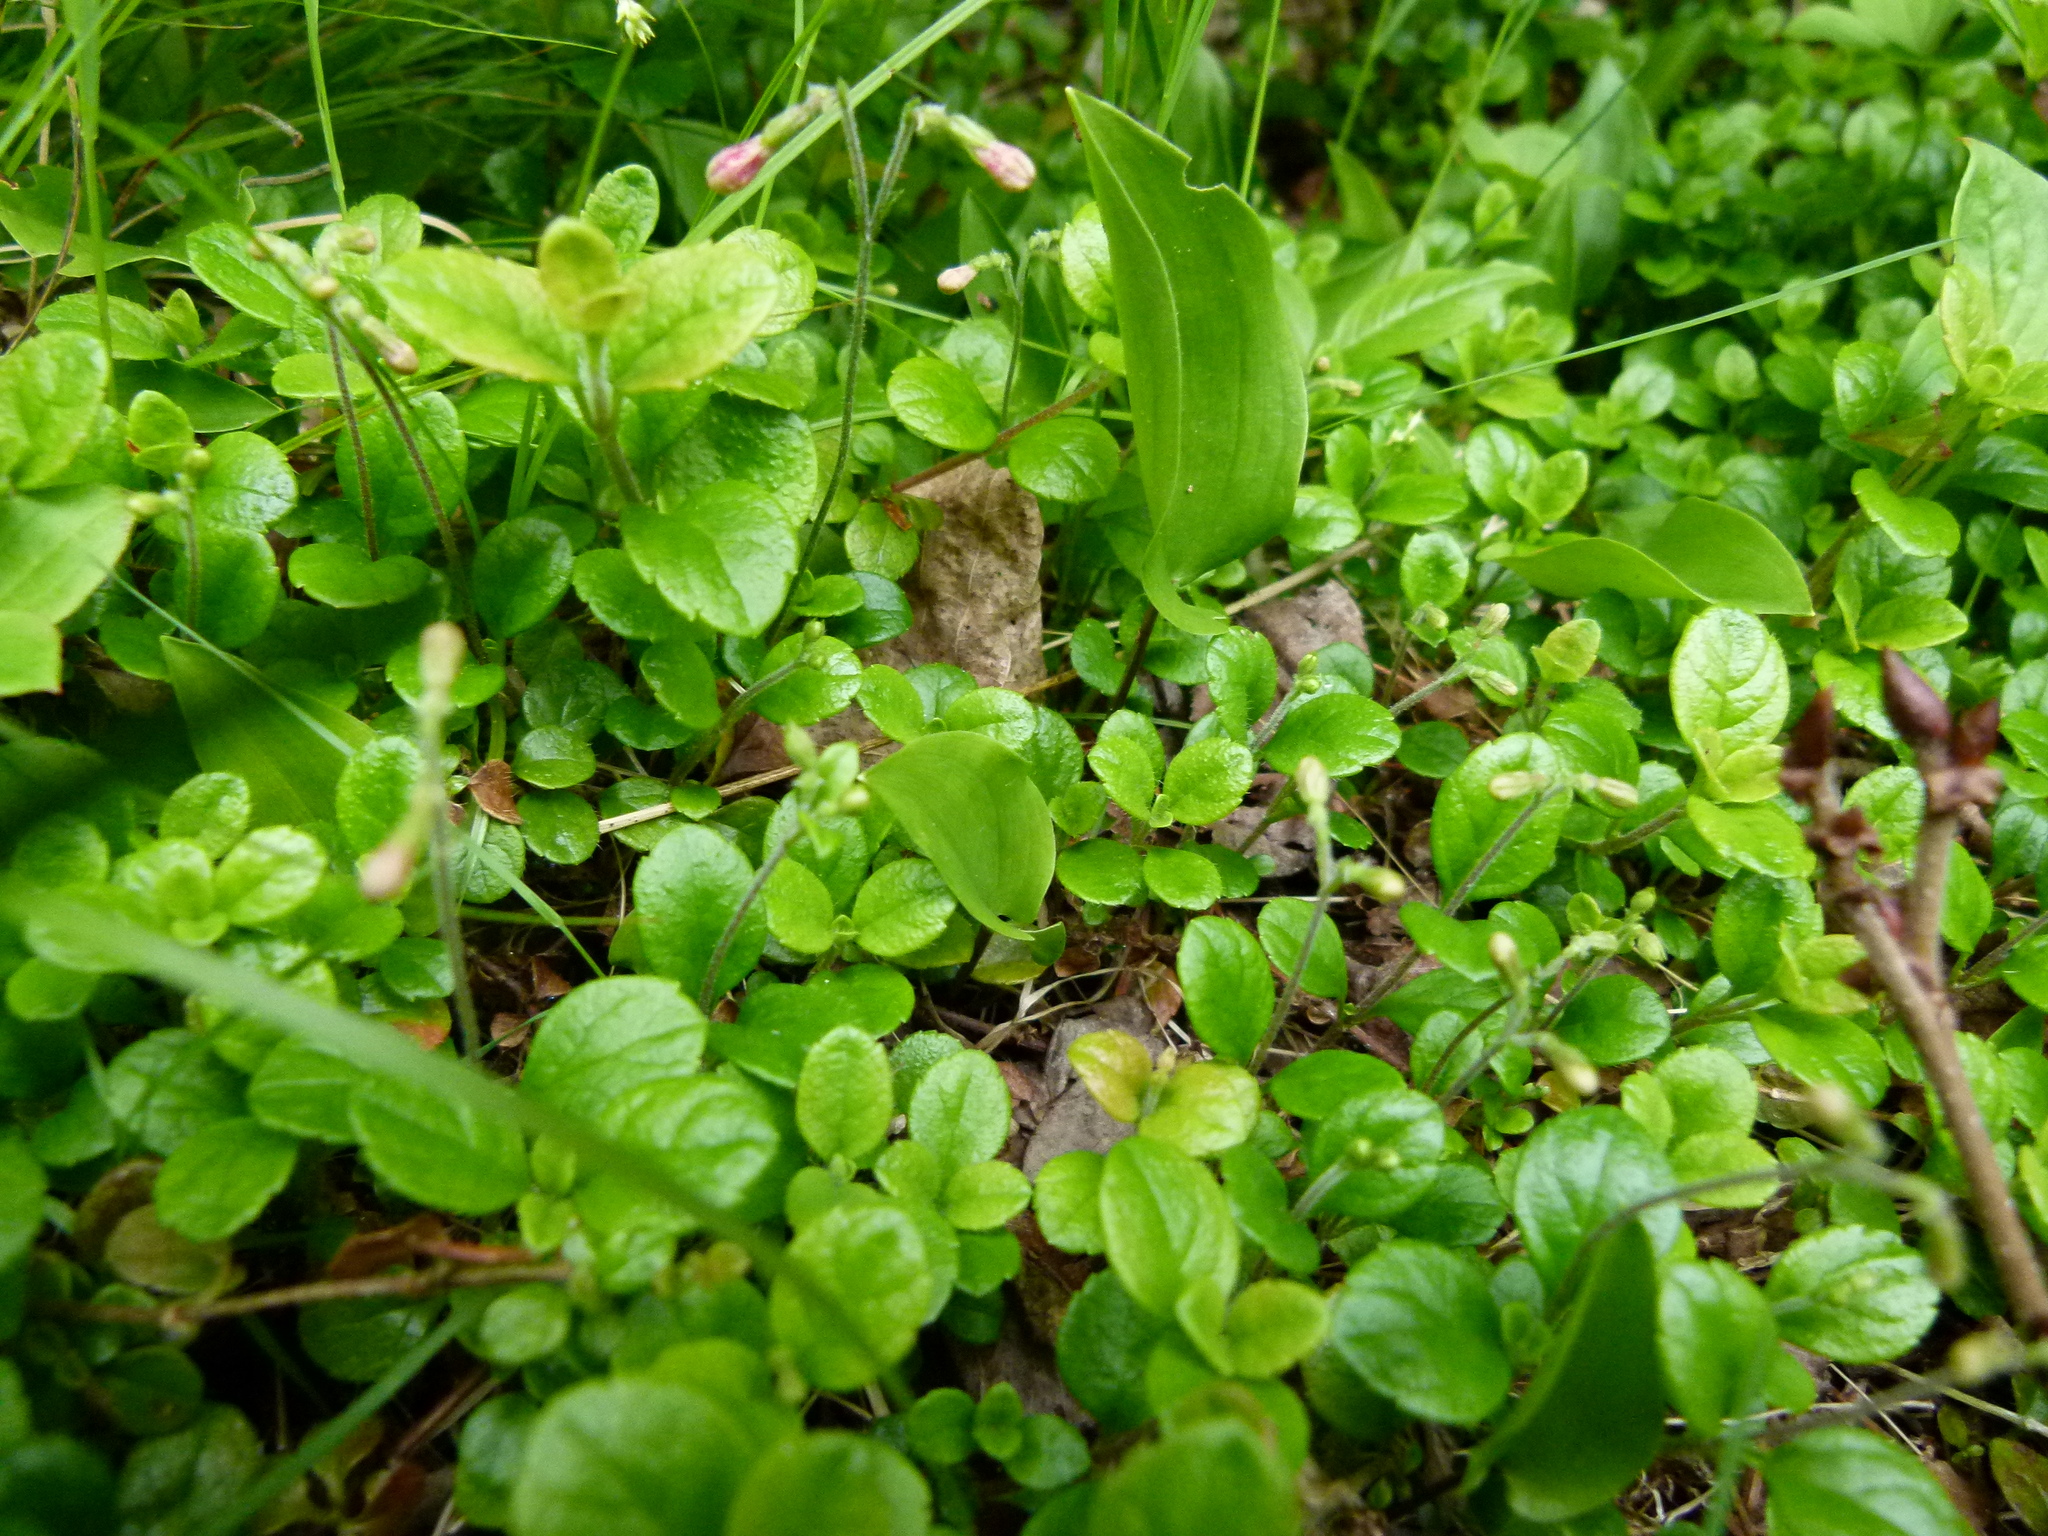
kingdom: Plantae
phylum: Tracheophyta
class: Magnoliopsida
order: Dipsacales
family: Caprifoliaceae
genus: Linnaea
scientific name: Linnaea borealis
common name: Twinflower
